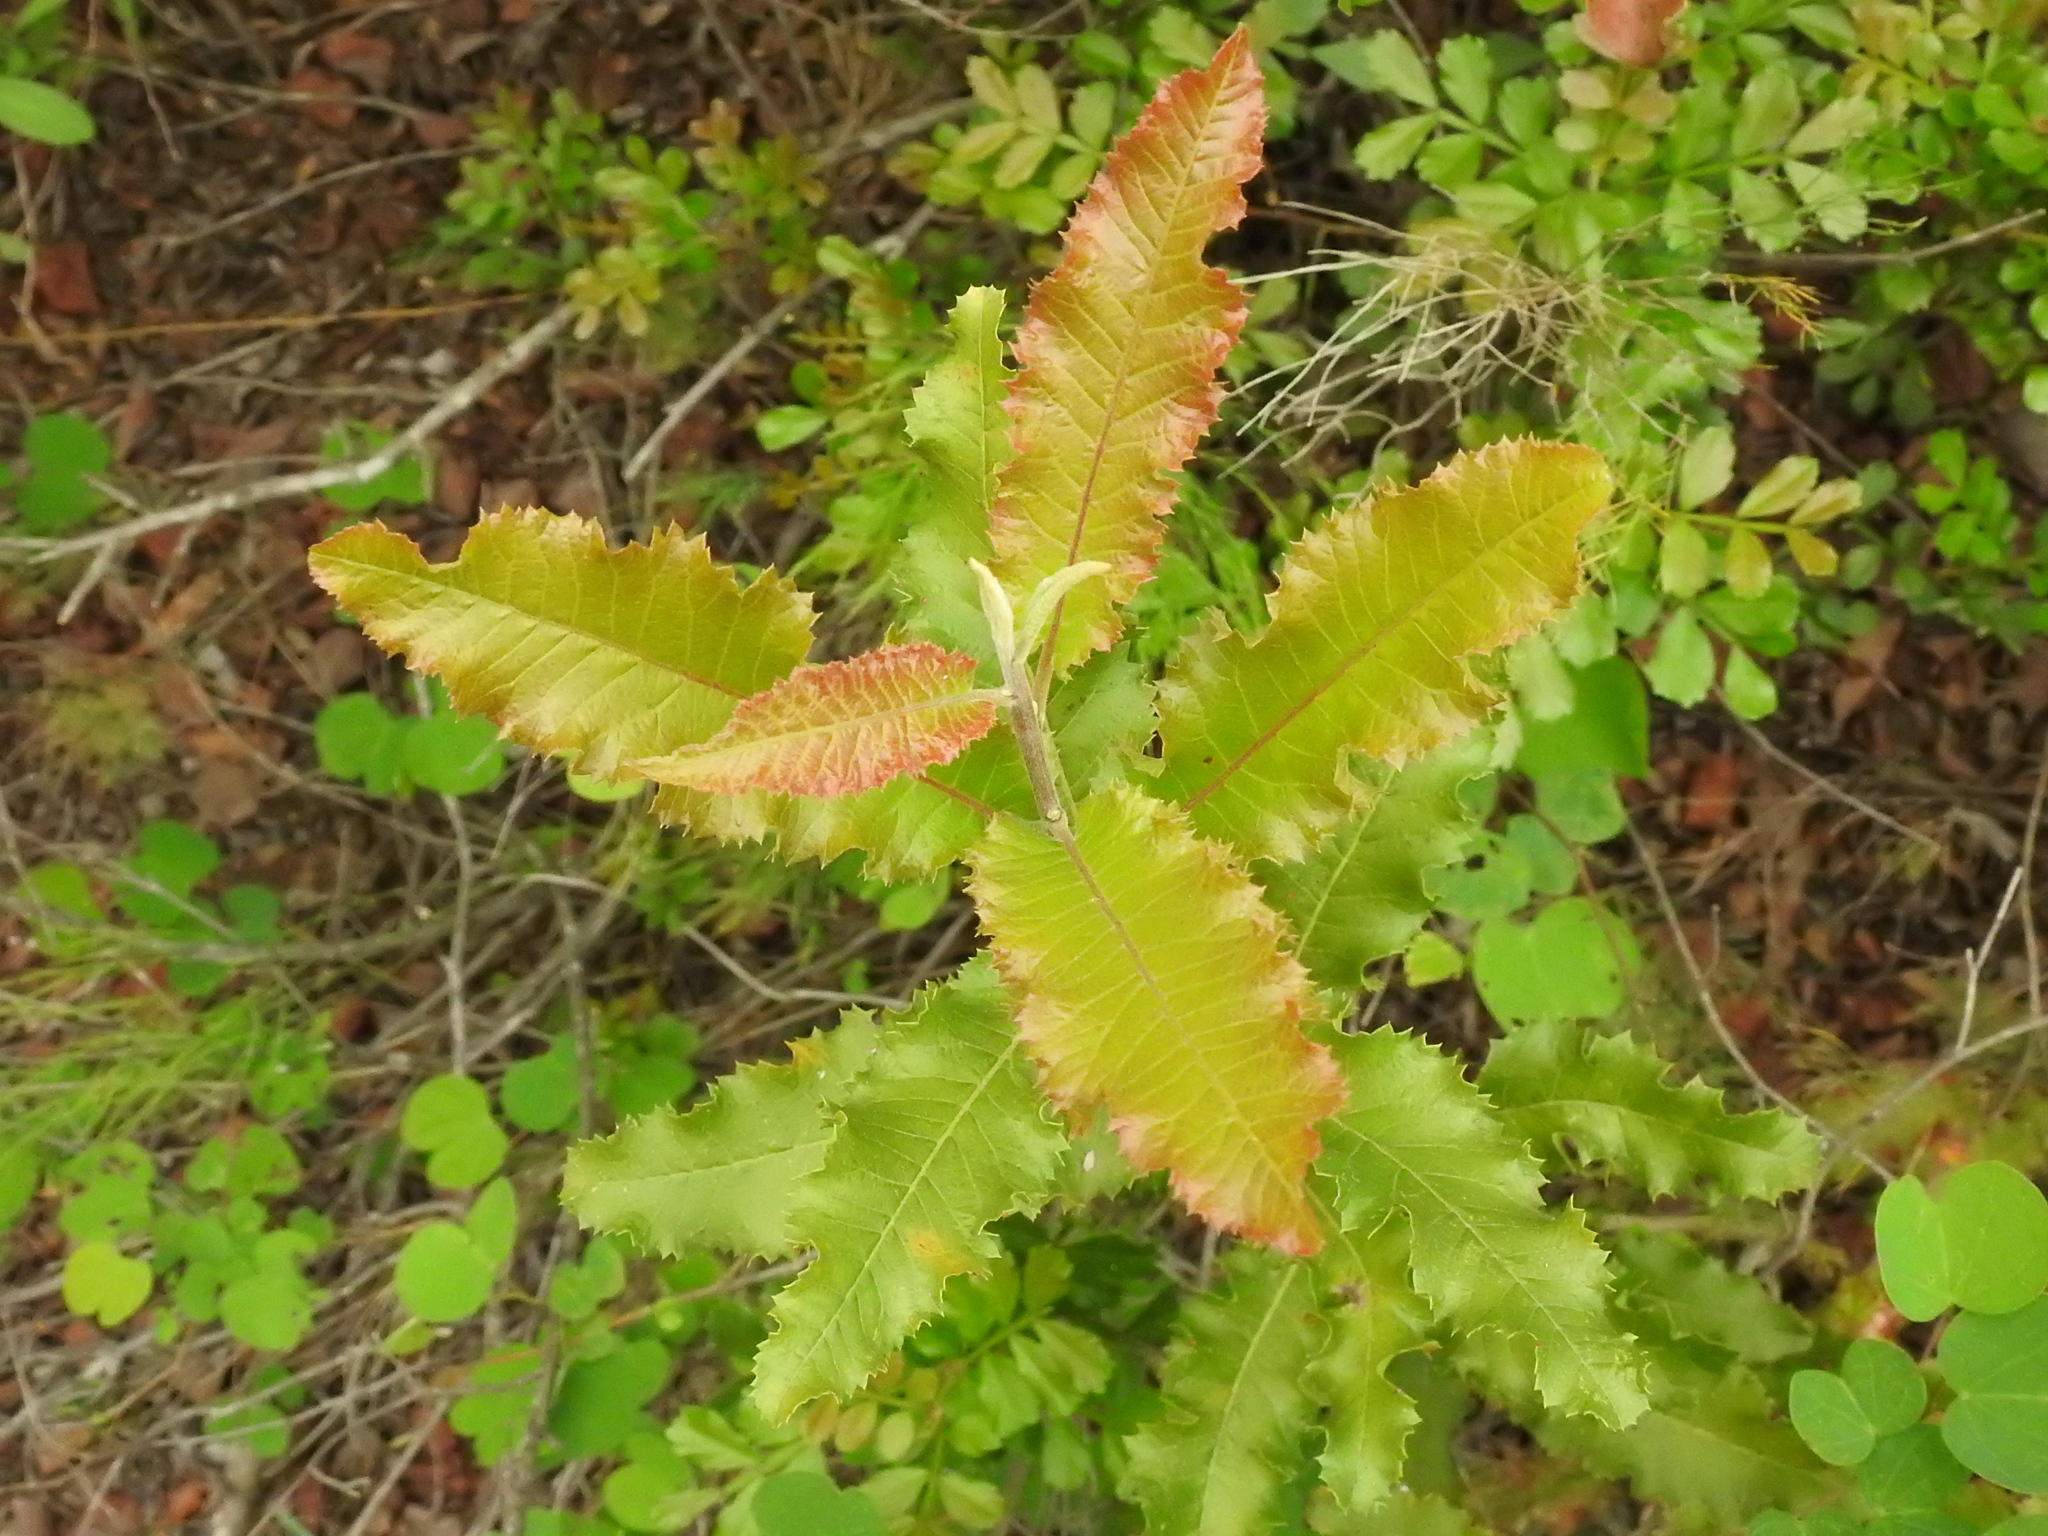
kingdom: Plantae
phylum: Tracheophyta
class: Magnoliopsida
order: Sapindales
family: Sapindaceae
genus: Pappea
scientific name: Pappea capensis
